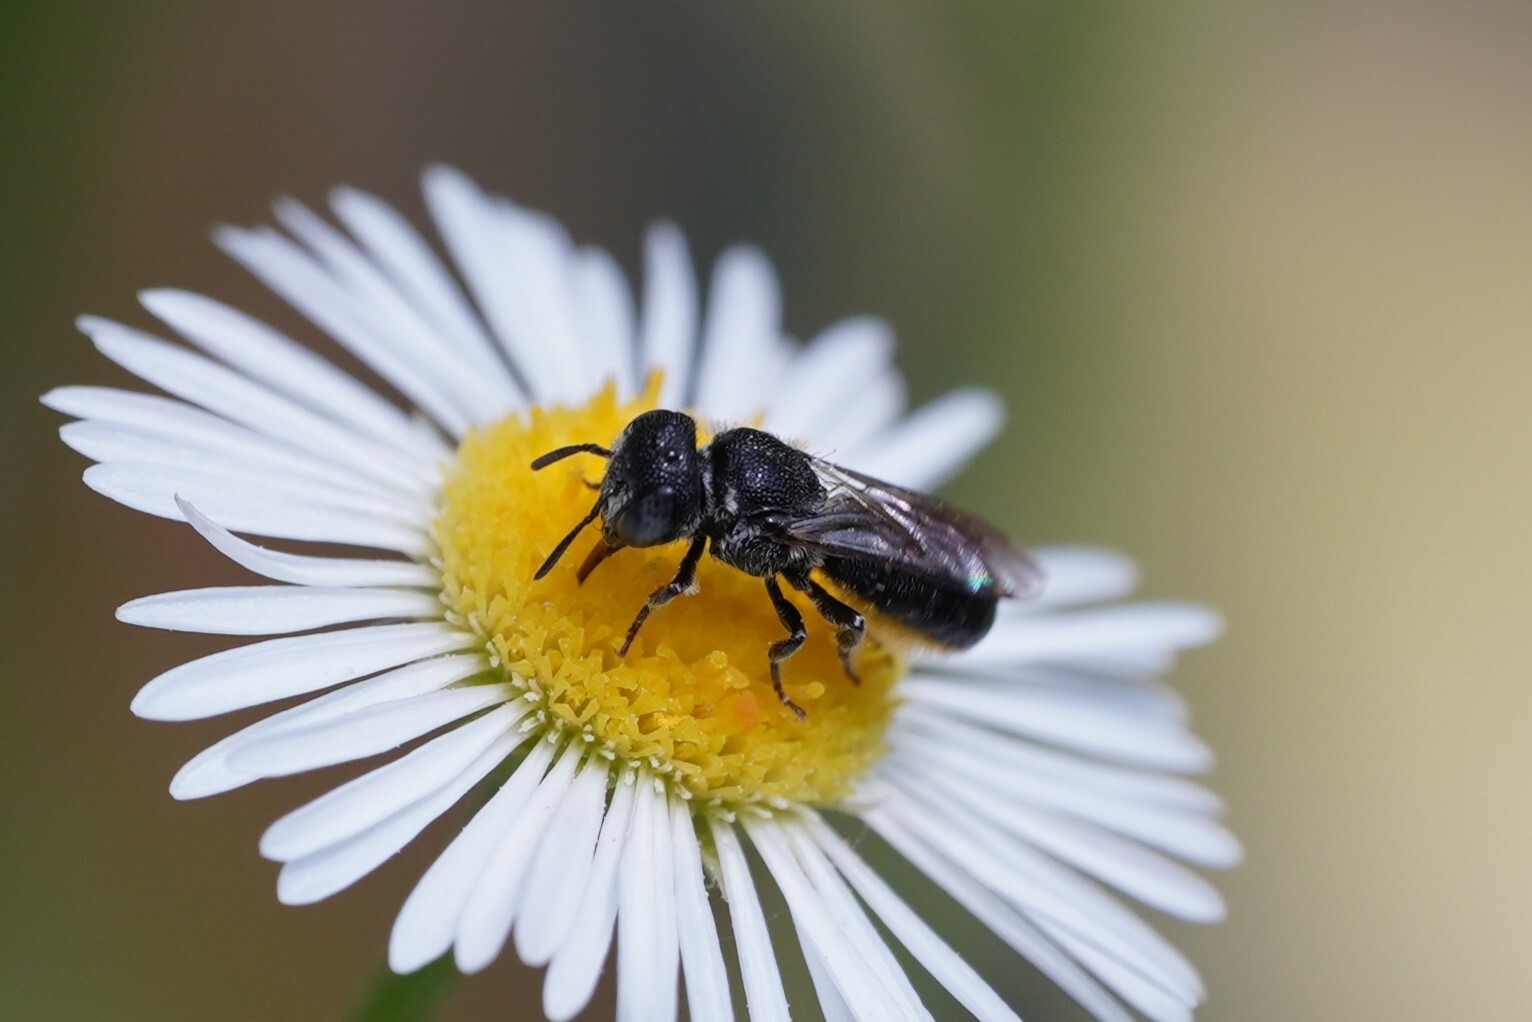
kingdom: Animalia
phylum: Arthropoda
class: Insecta
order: Hymenoptera
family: Megachilidae
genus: Heriades
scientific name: Heriades rubicola
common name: Bramble carpenter bee
